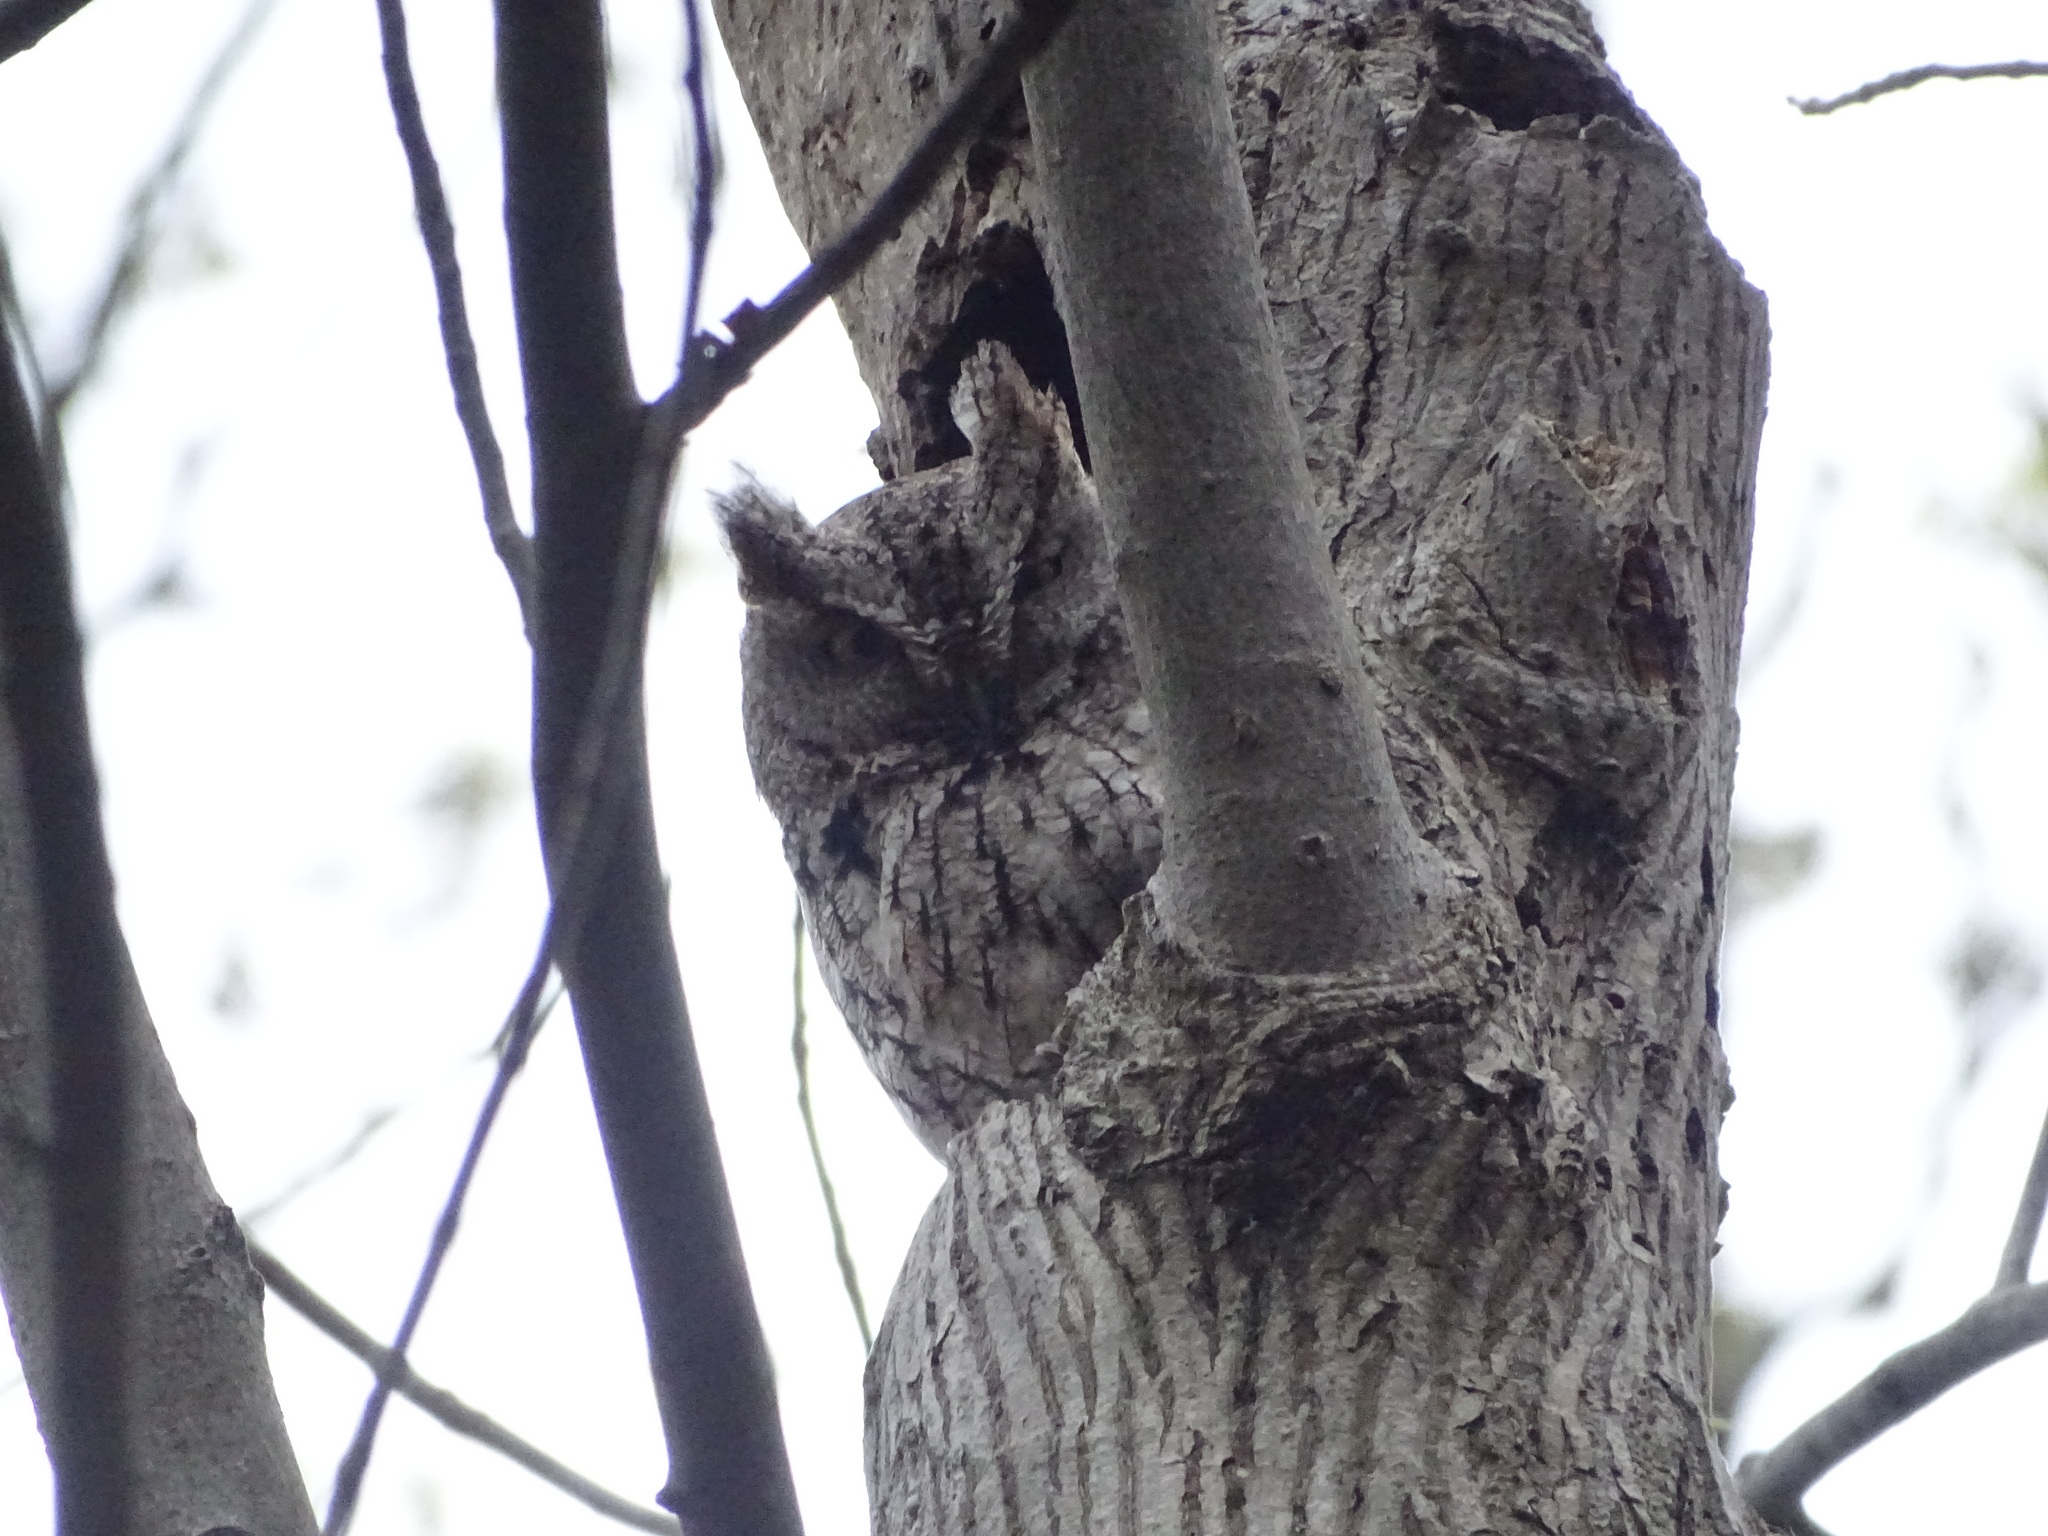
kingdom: Animalia
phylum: Chordata
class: Aves
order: Strigiformes
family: Strigidae
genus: Megascops
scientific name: Megascops asio
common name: Eastern screech-owl
